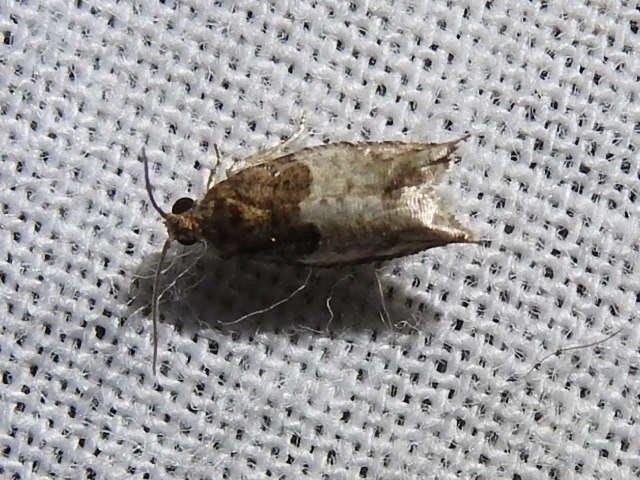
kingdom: Animalia
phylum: Arthropoda
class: Insecta
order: Lepidoptera
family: Tortricidae
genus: Gypsonoma
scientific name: Gypsonoma salicicolana
